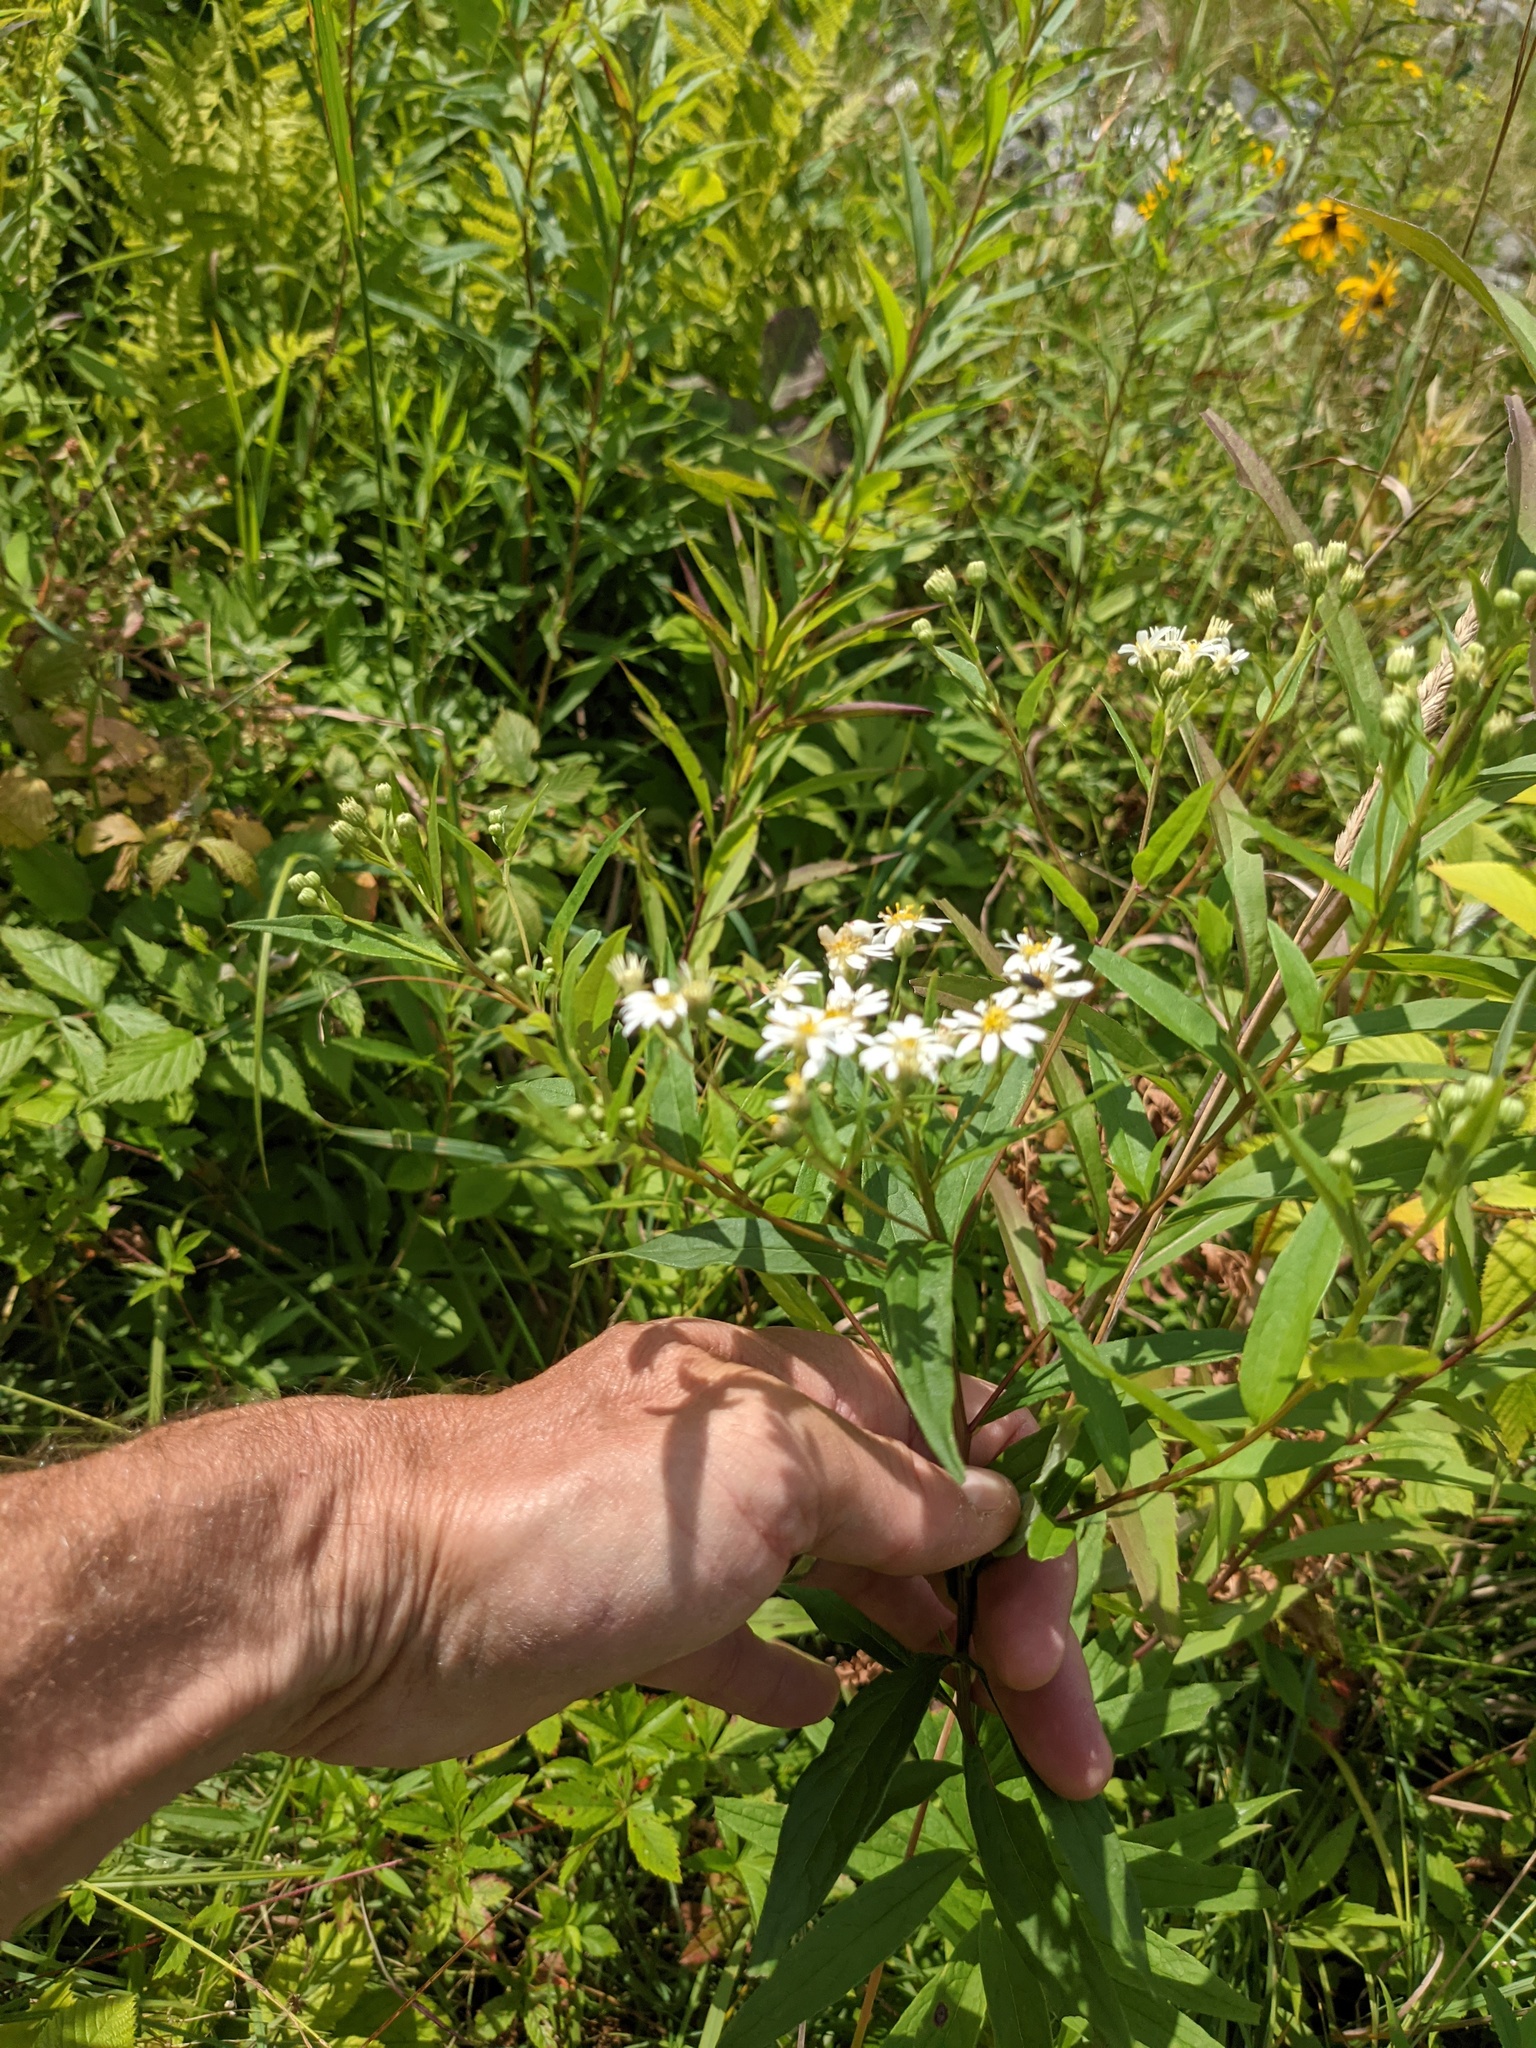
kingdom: Plantae
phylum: Tracheophyta
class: Magnoliopsida
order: Asterales
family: Asteraceae
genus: Doellingeria
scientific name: Doellingeria umbellata
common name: Flat-top white aster
